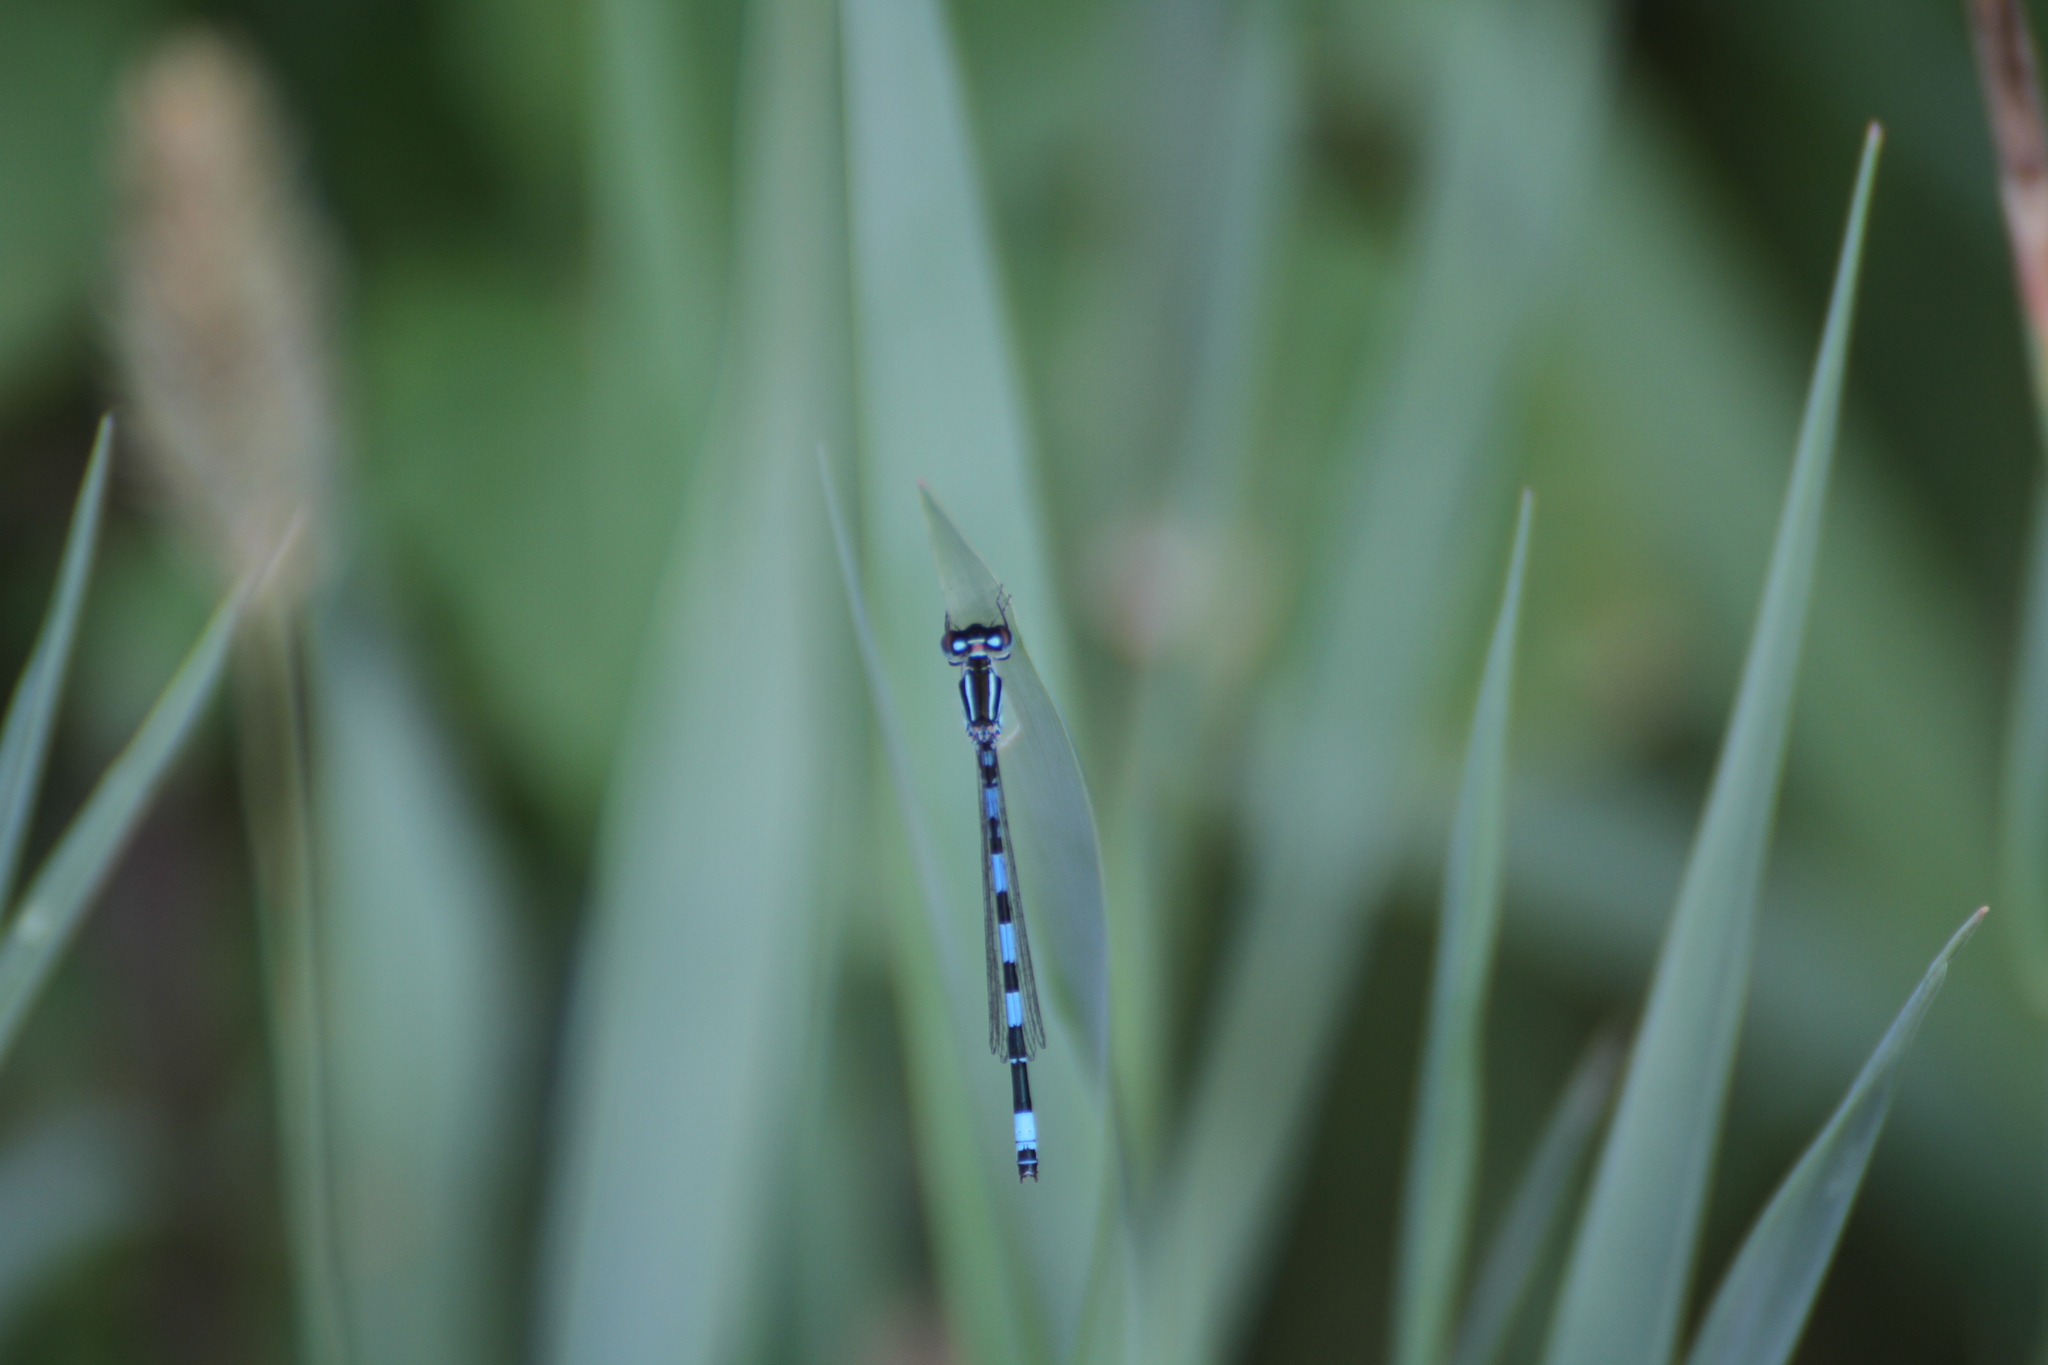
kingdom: Animalia
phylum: Arthropoda
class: Insecta
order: Odonata
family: Coenagrionidae
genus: Coenagrion
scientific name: Coenagrion mercuriale
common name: Southern damselfly
